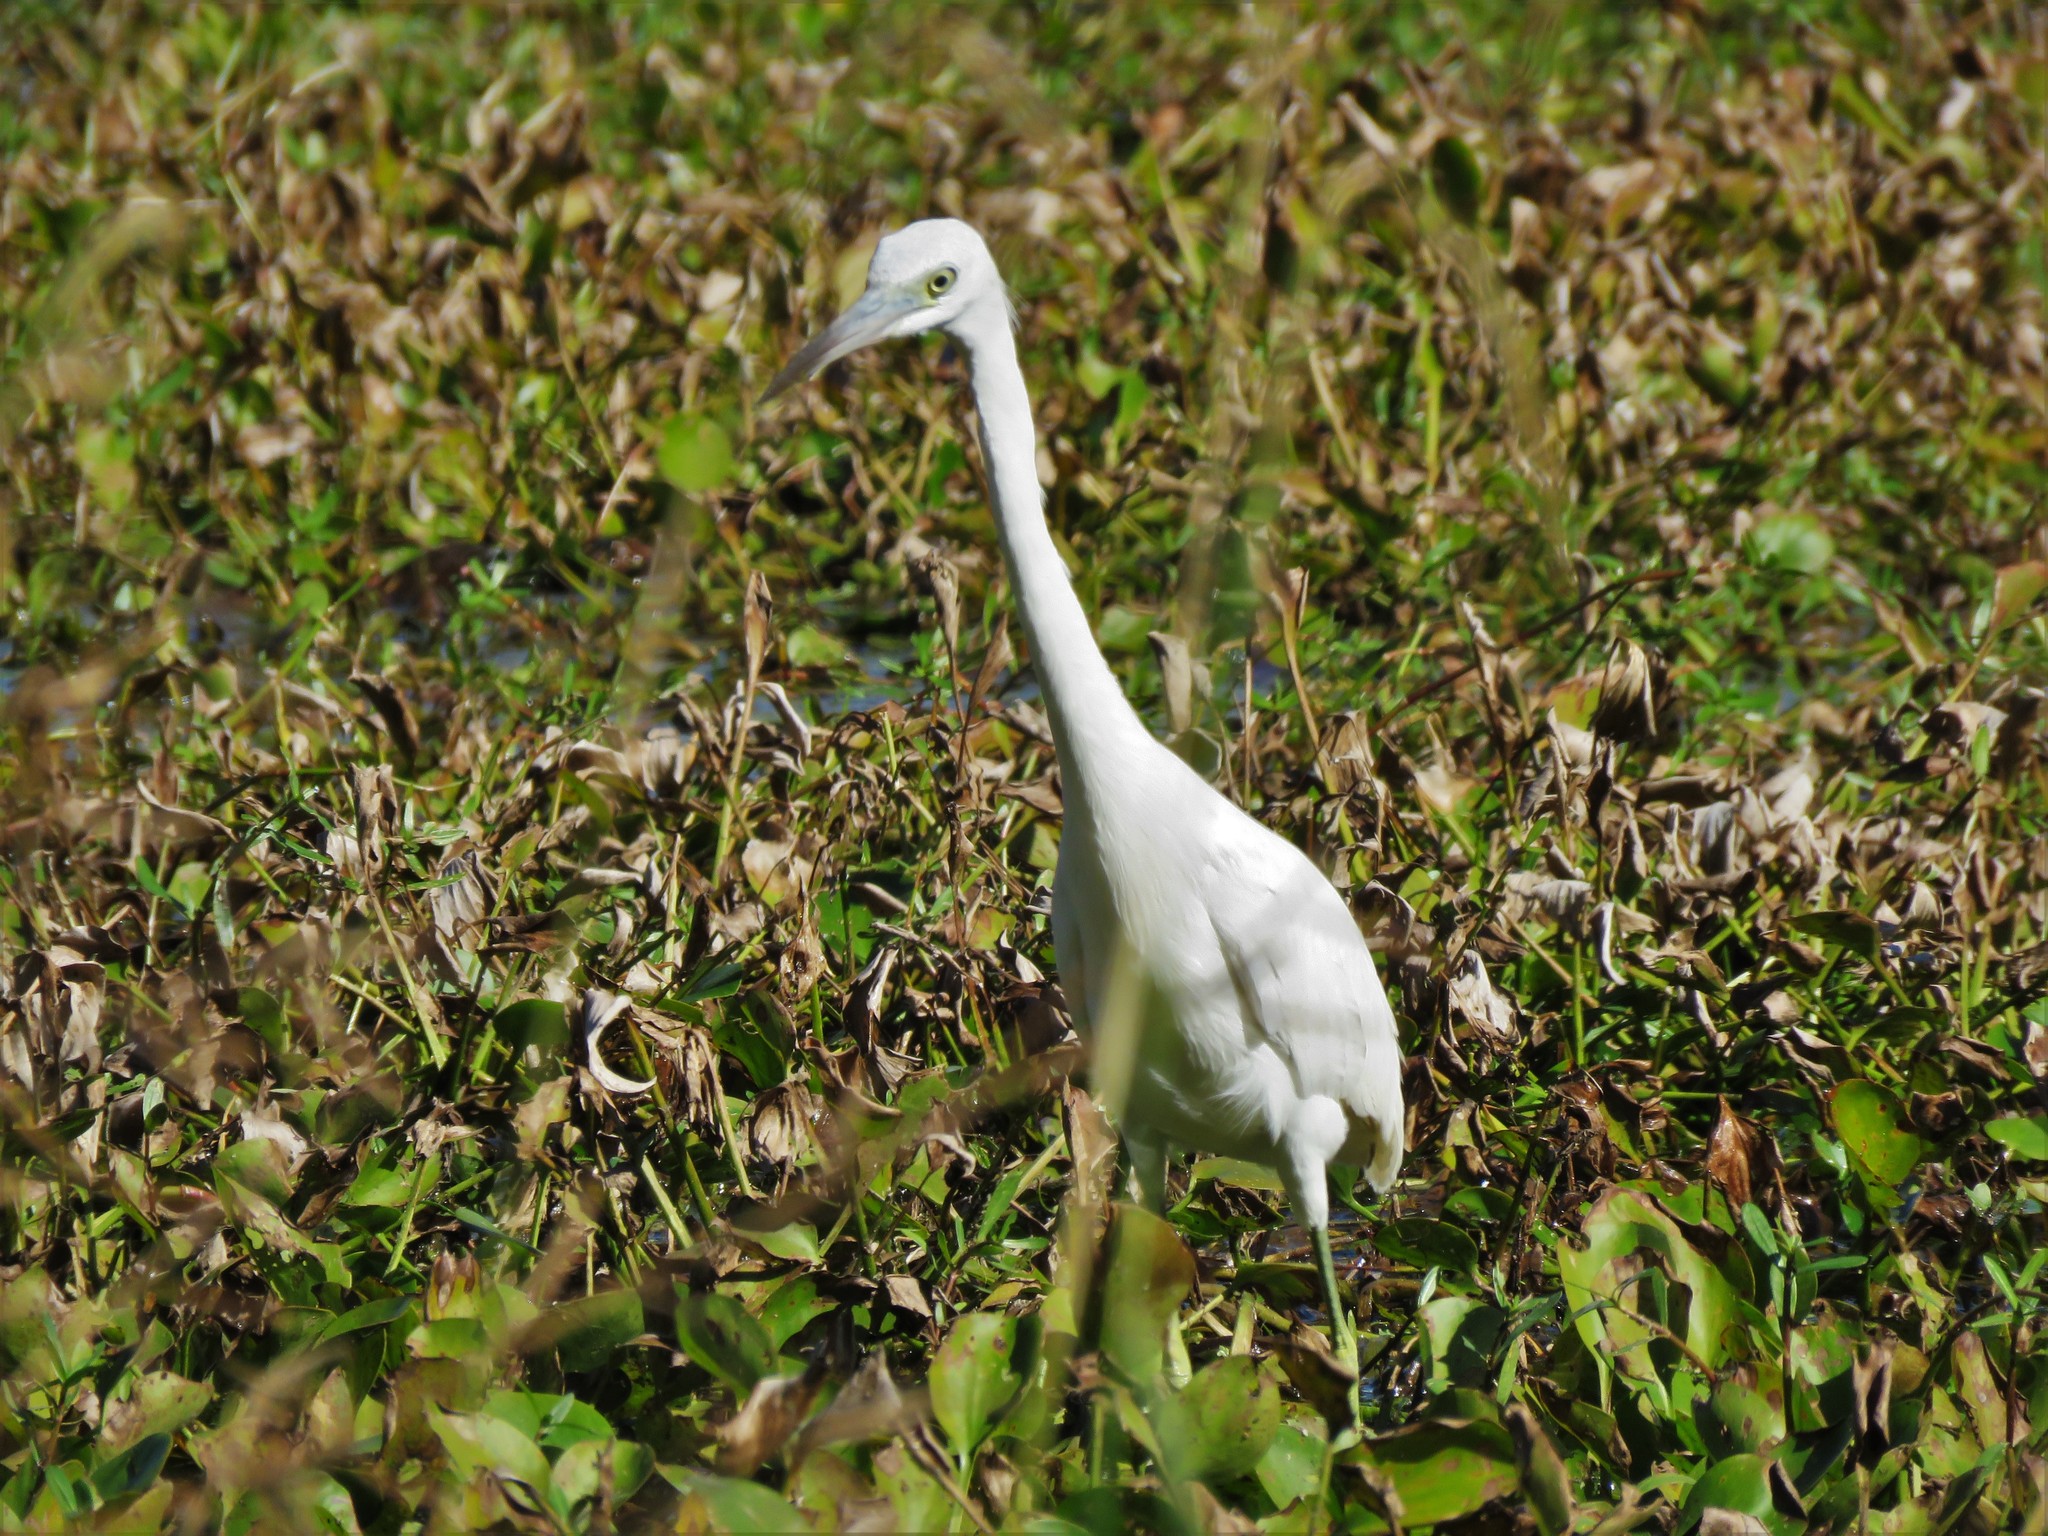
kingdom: Animalia
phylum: Chordata
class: Aves
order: Pelecaniformes
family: Ardeidae
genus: Egretta
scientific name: Egretta caerulea
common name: Little blue heron
